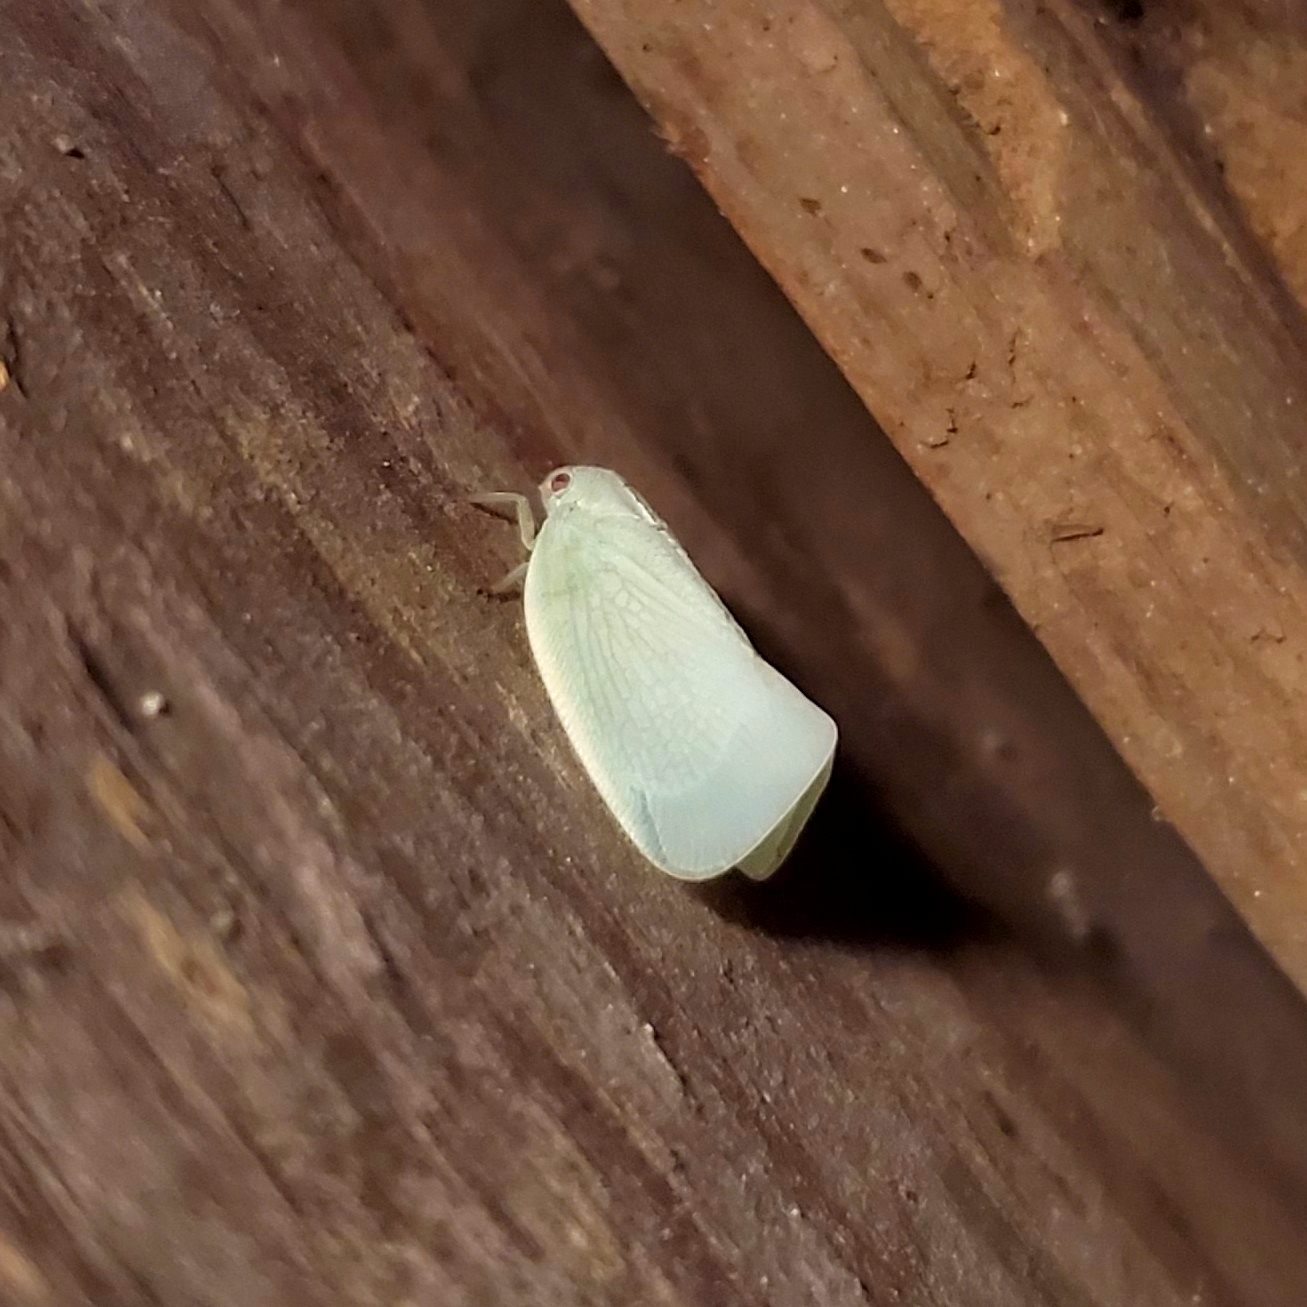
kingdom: Animalia
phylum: Arthropoda
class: Insecta
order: Hemiptera
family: Flatidae
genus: Flatormenis
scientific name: Flatormenis proxima
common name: Northern flatid planthopper
